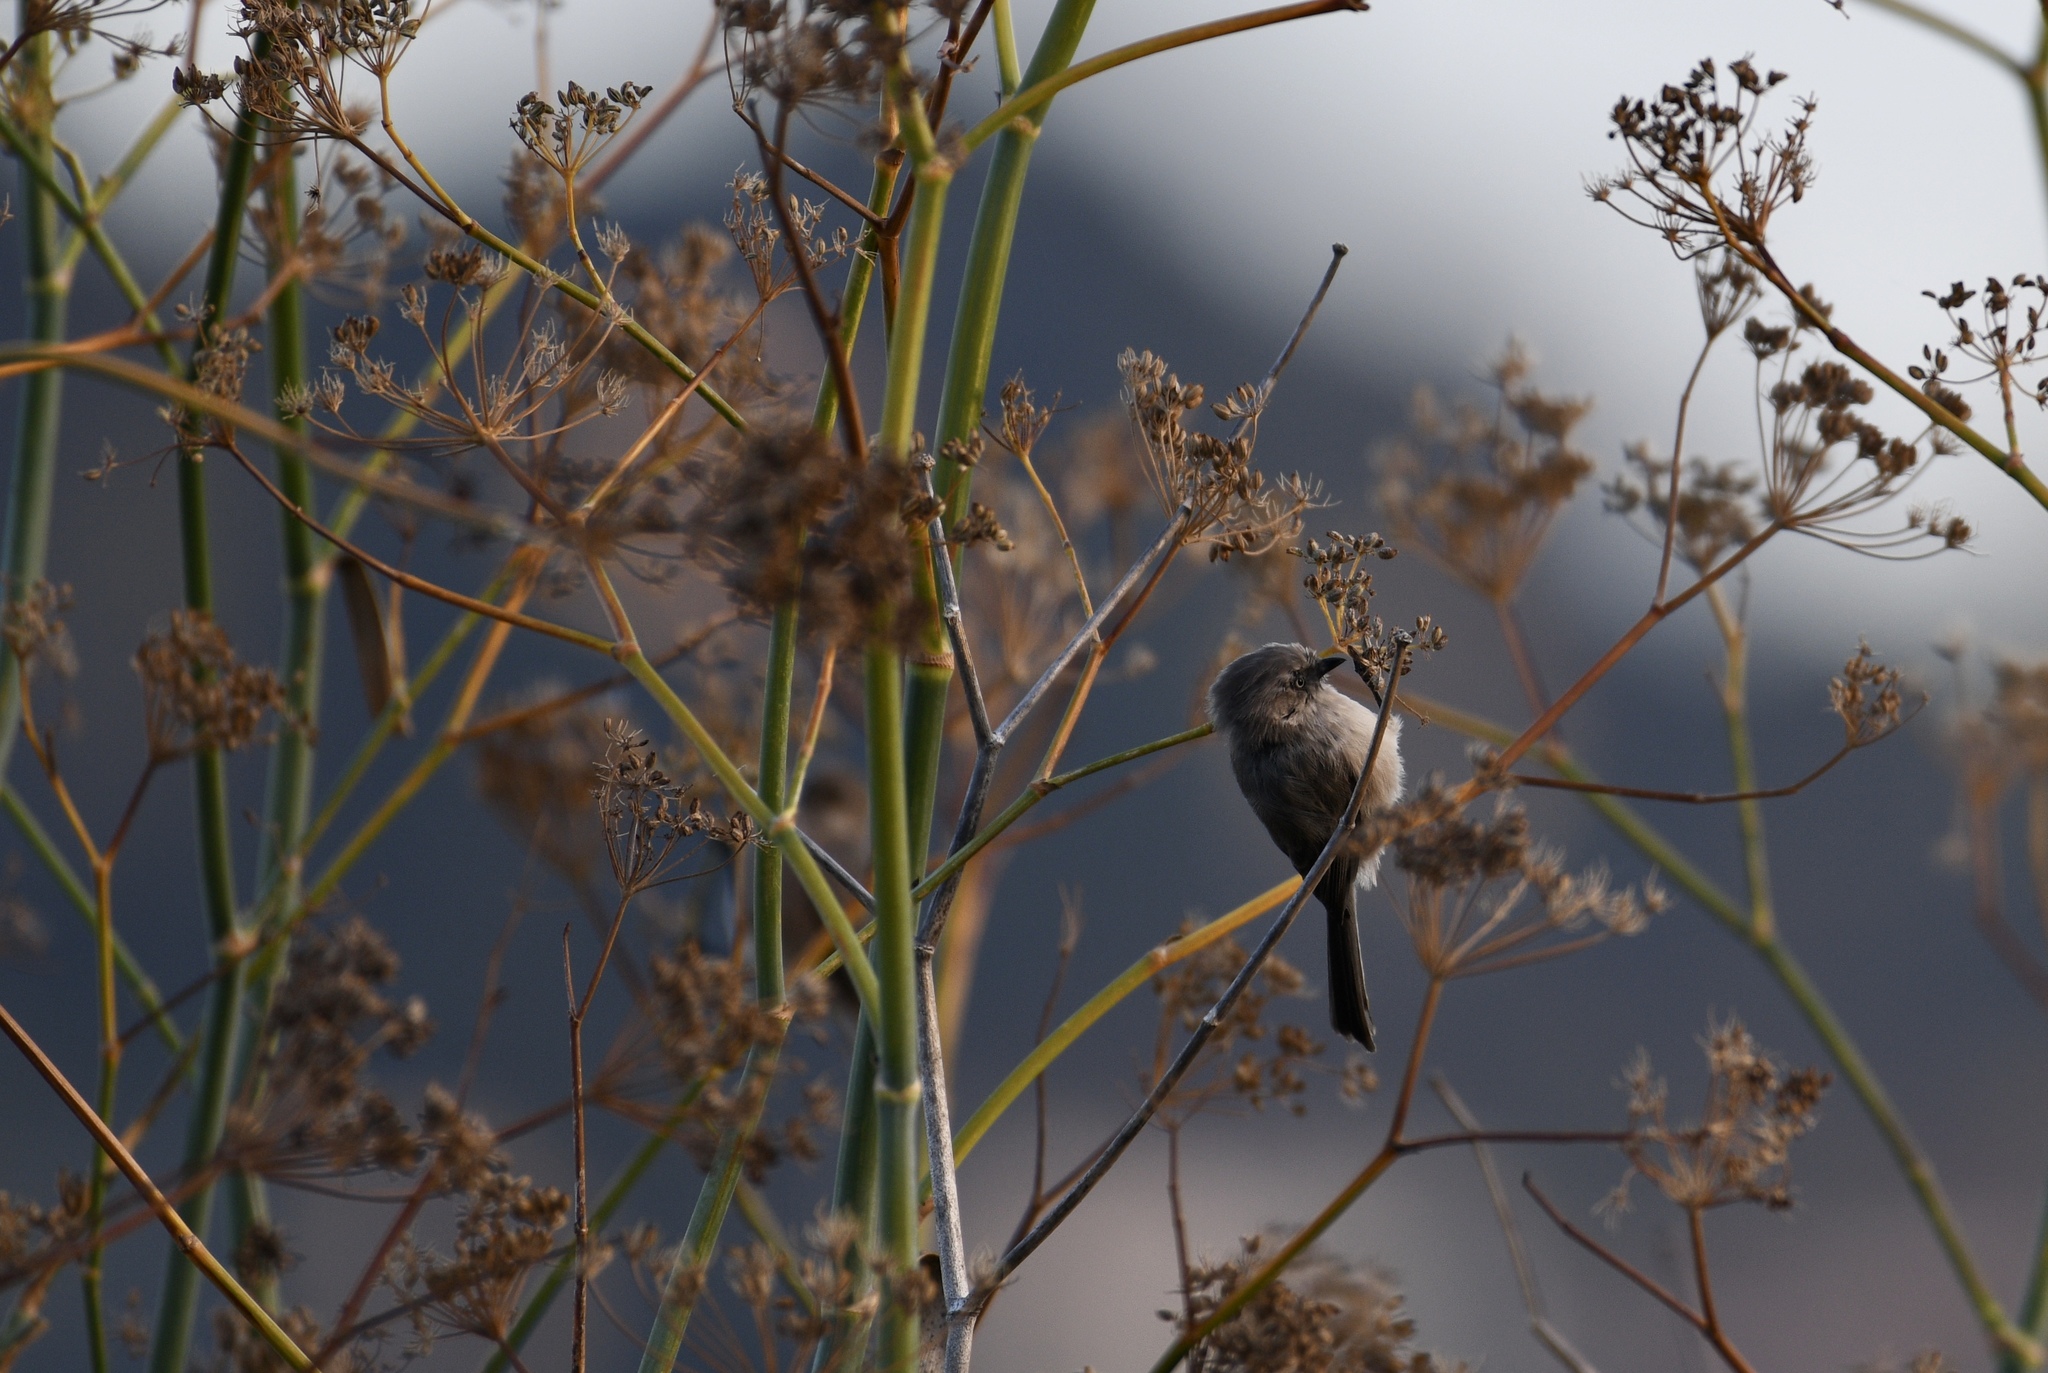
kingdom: Animalia
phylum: Chordata
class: Aves
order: Passeriformes
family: Aegithalidae
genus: Psaltriparus
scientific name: Psaltriparus minimus
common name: American bushtit
